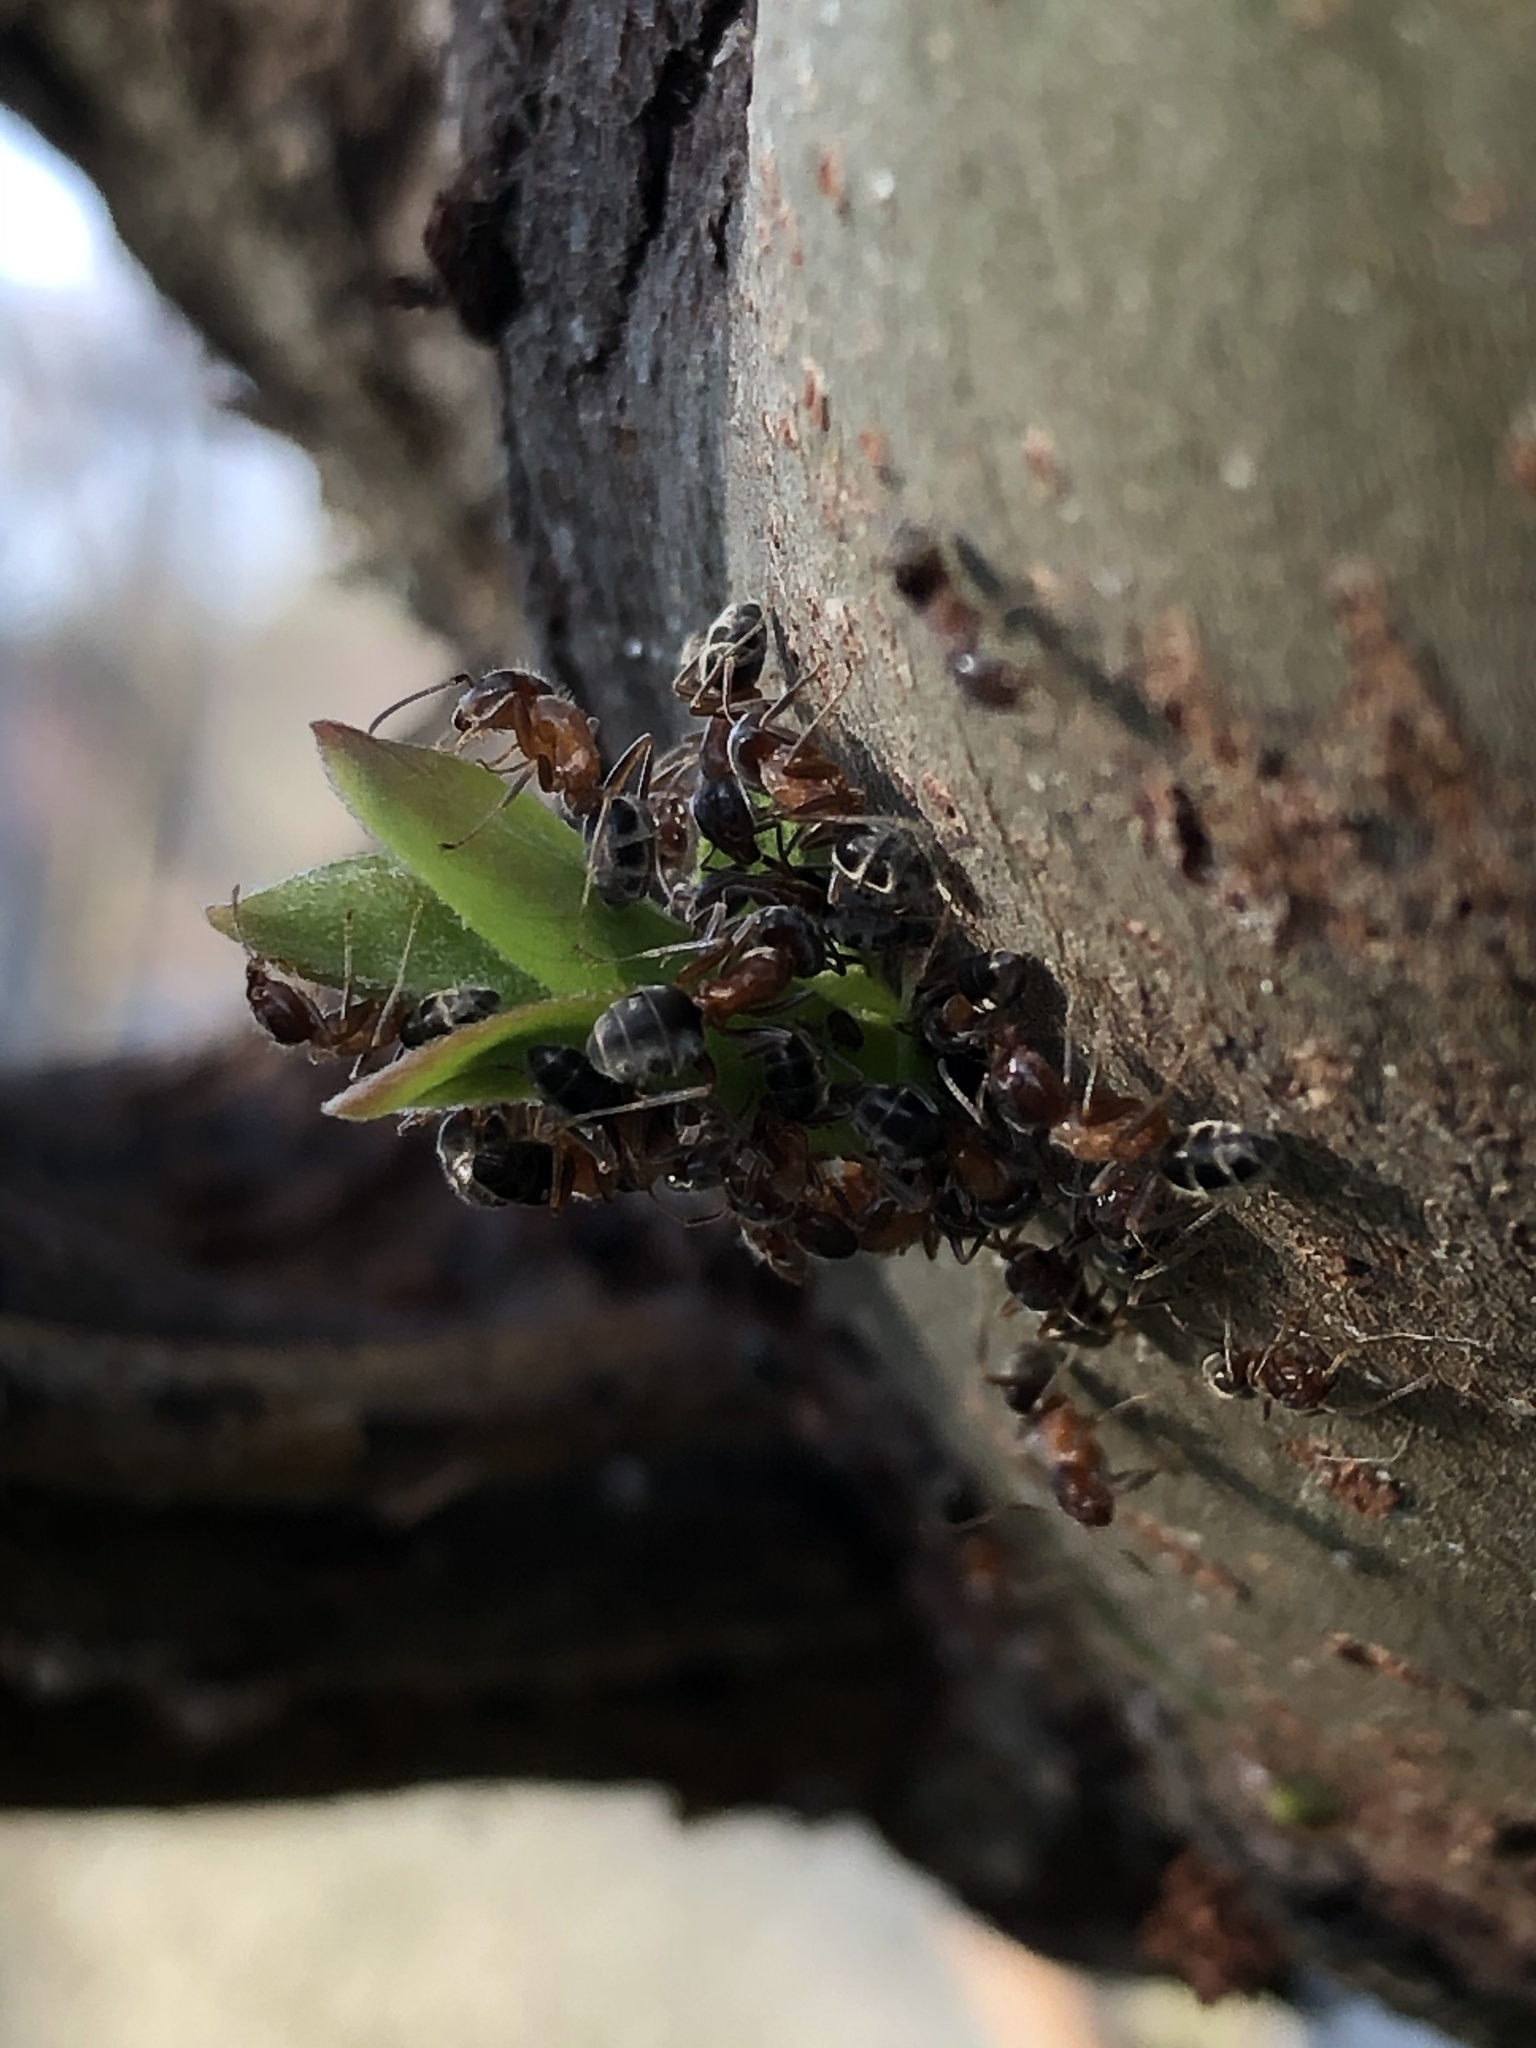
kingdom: Animalia
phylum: Arthropoda
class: Insecta
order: Hymenoptera
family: Formicidae
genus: Liometopum
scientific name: Liometopum occidentale
